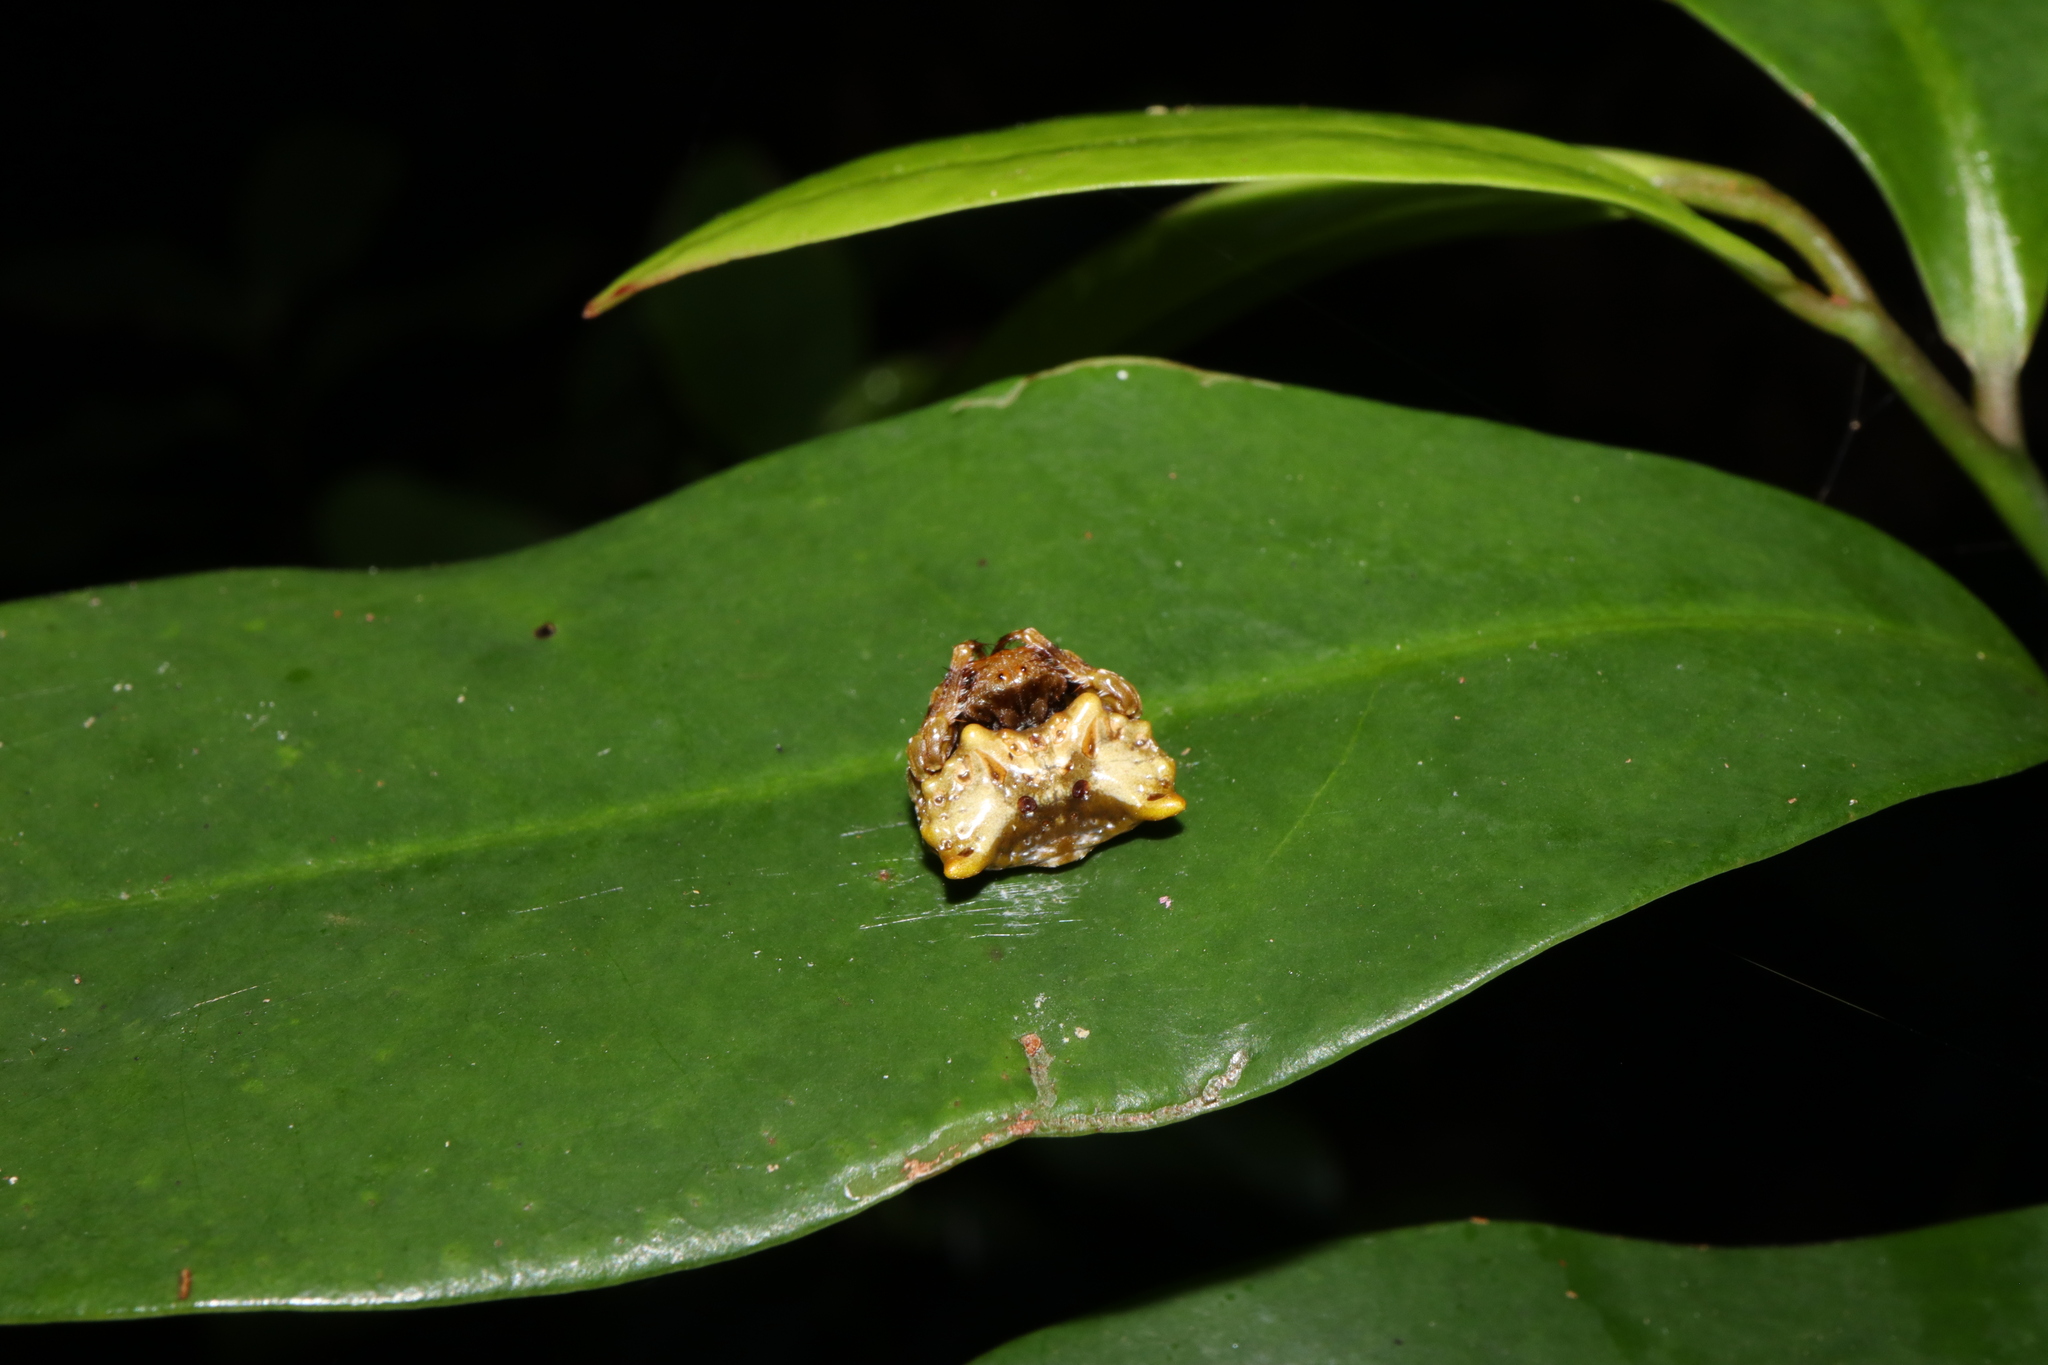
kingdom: Animalia
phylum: Arthropoda
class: Arachnida
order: Araneae
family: Arkyidae
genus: Arkys
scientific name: Arkys curtulus
